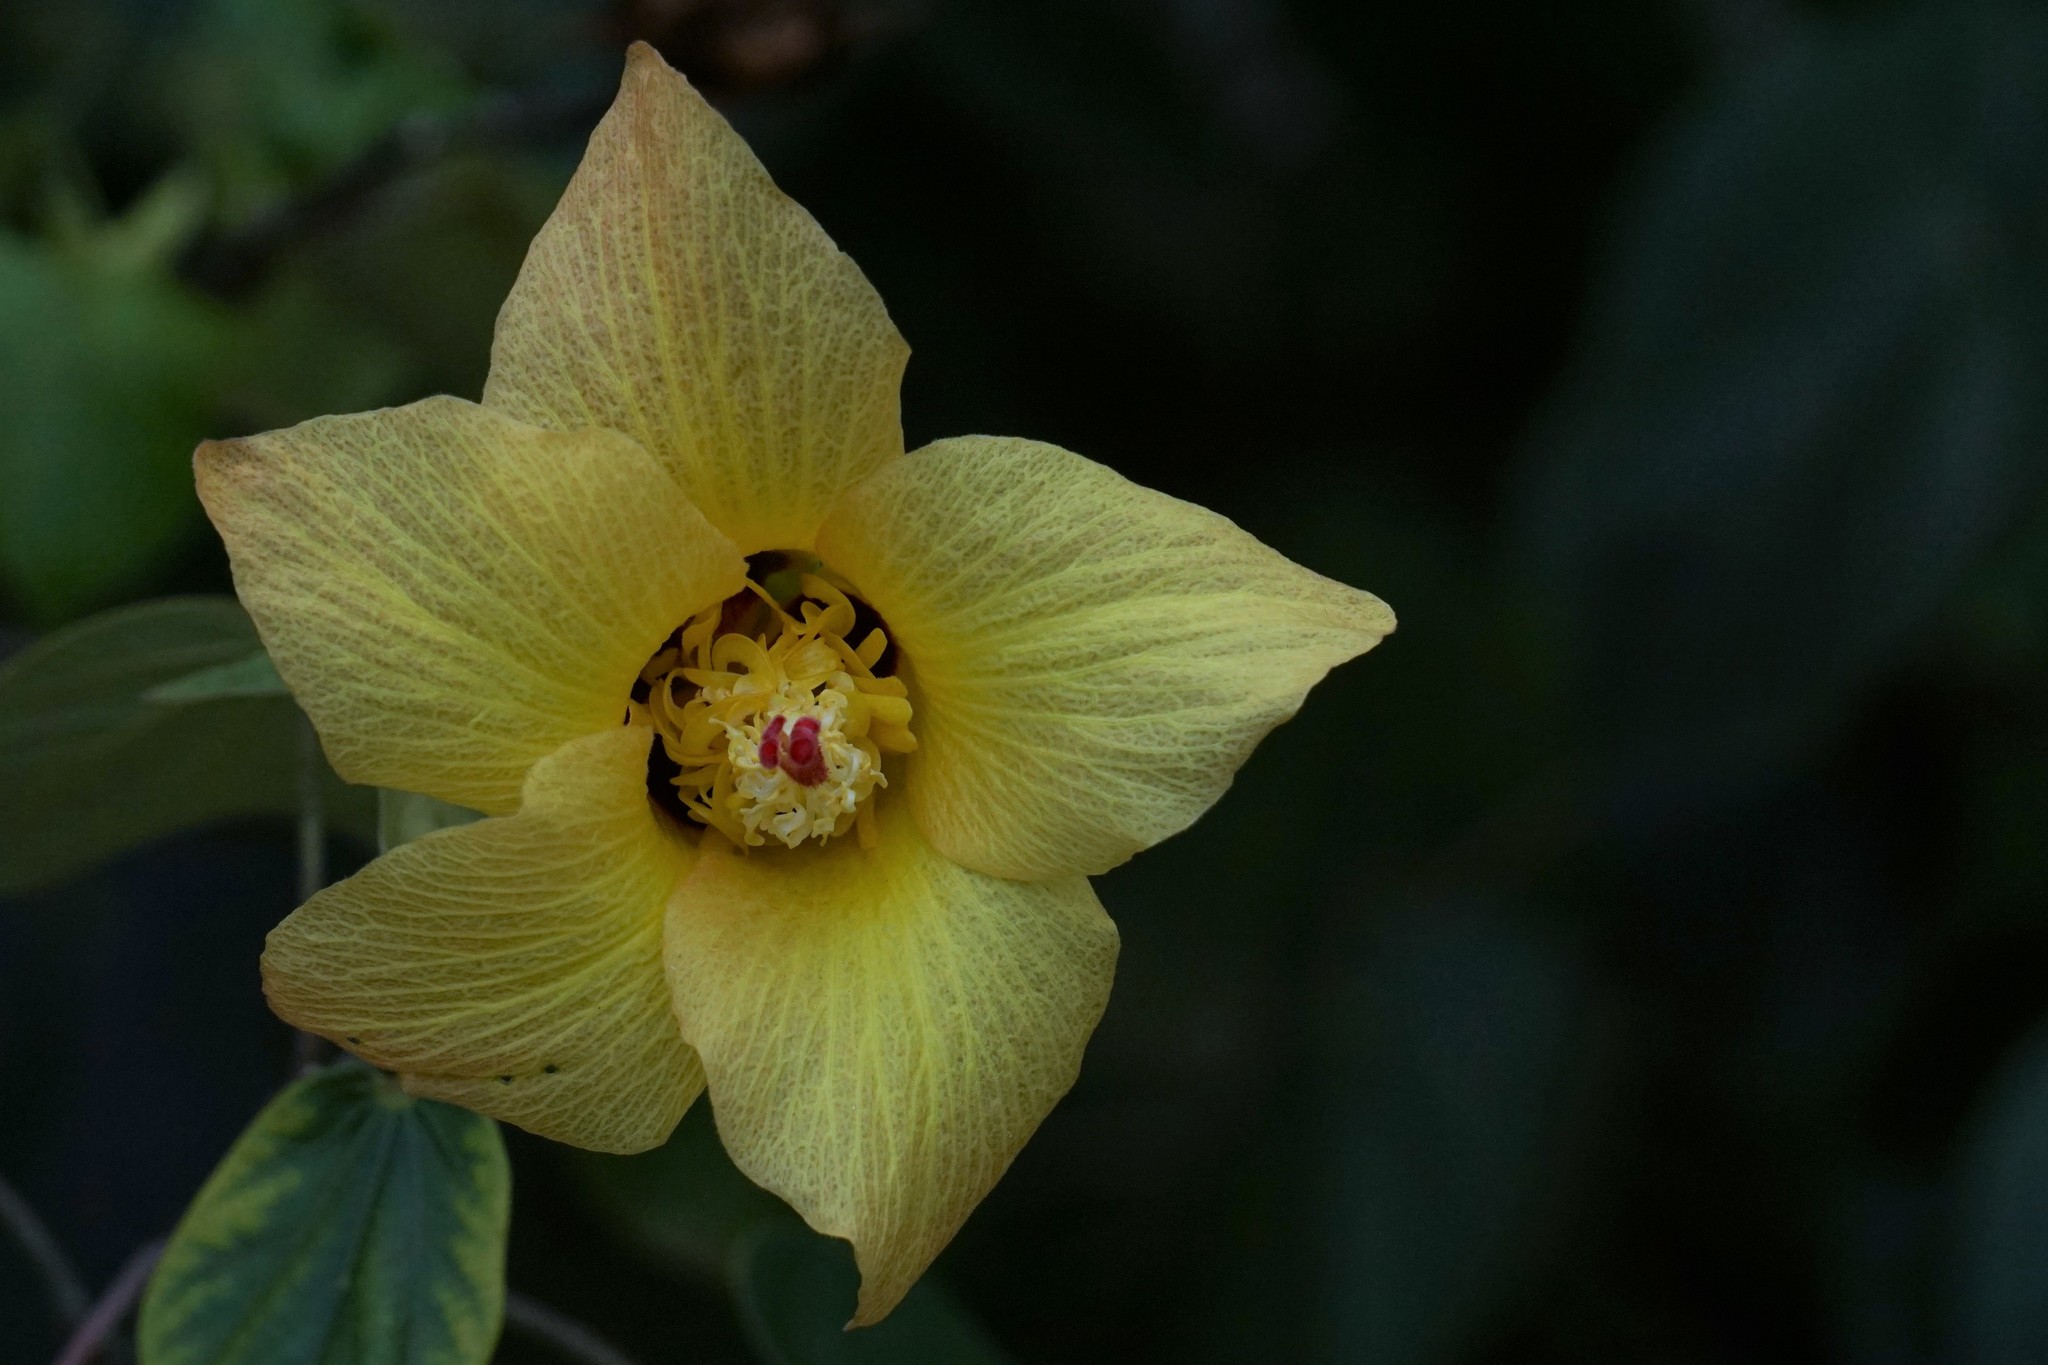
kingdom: Plantae
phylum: Tracheophyta
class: Magnoliopsida
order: Malvales
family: Malvaceae
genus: Talipariti
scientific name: Talipariti tiliaceum
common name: Sea hibiscus
